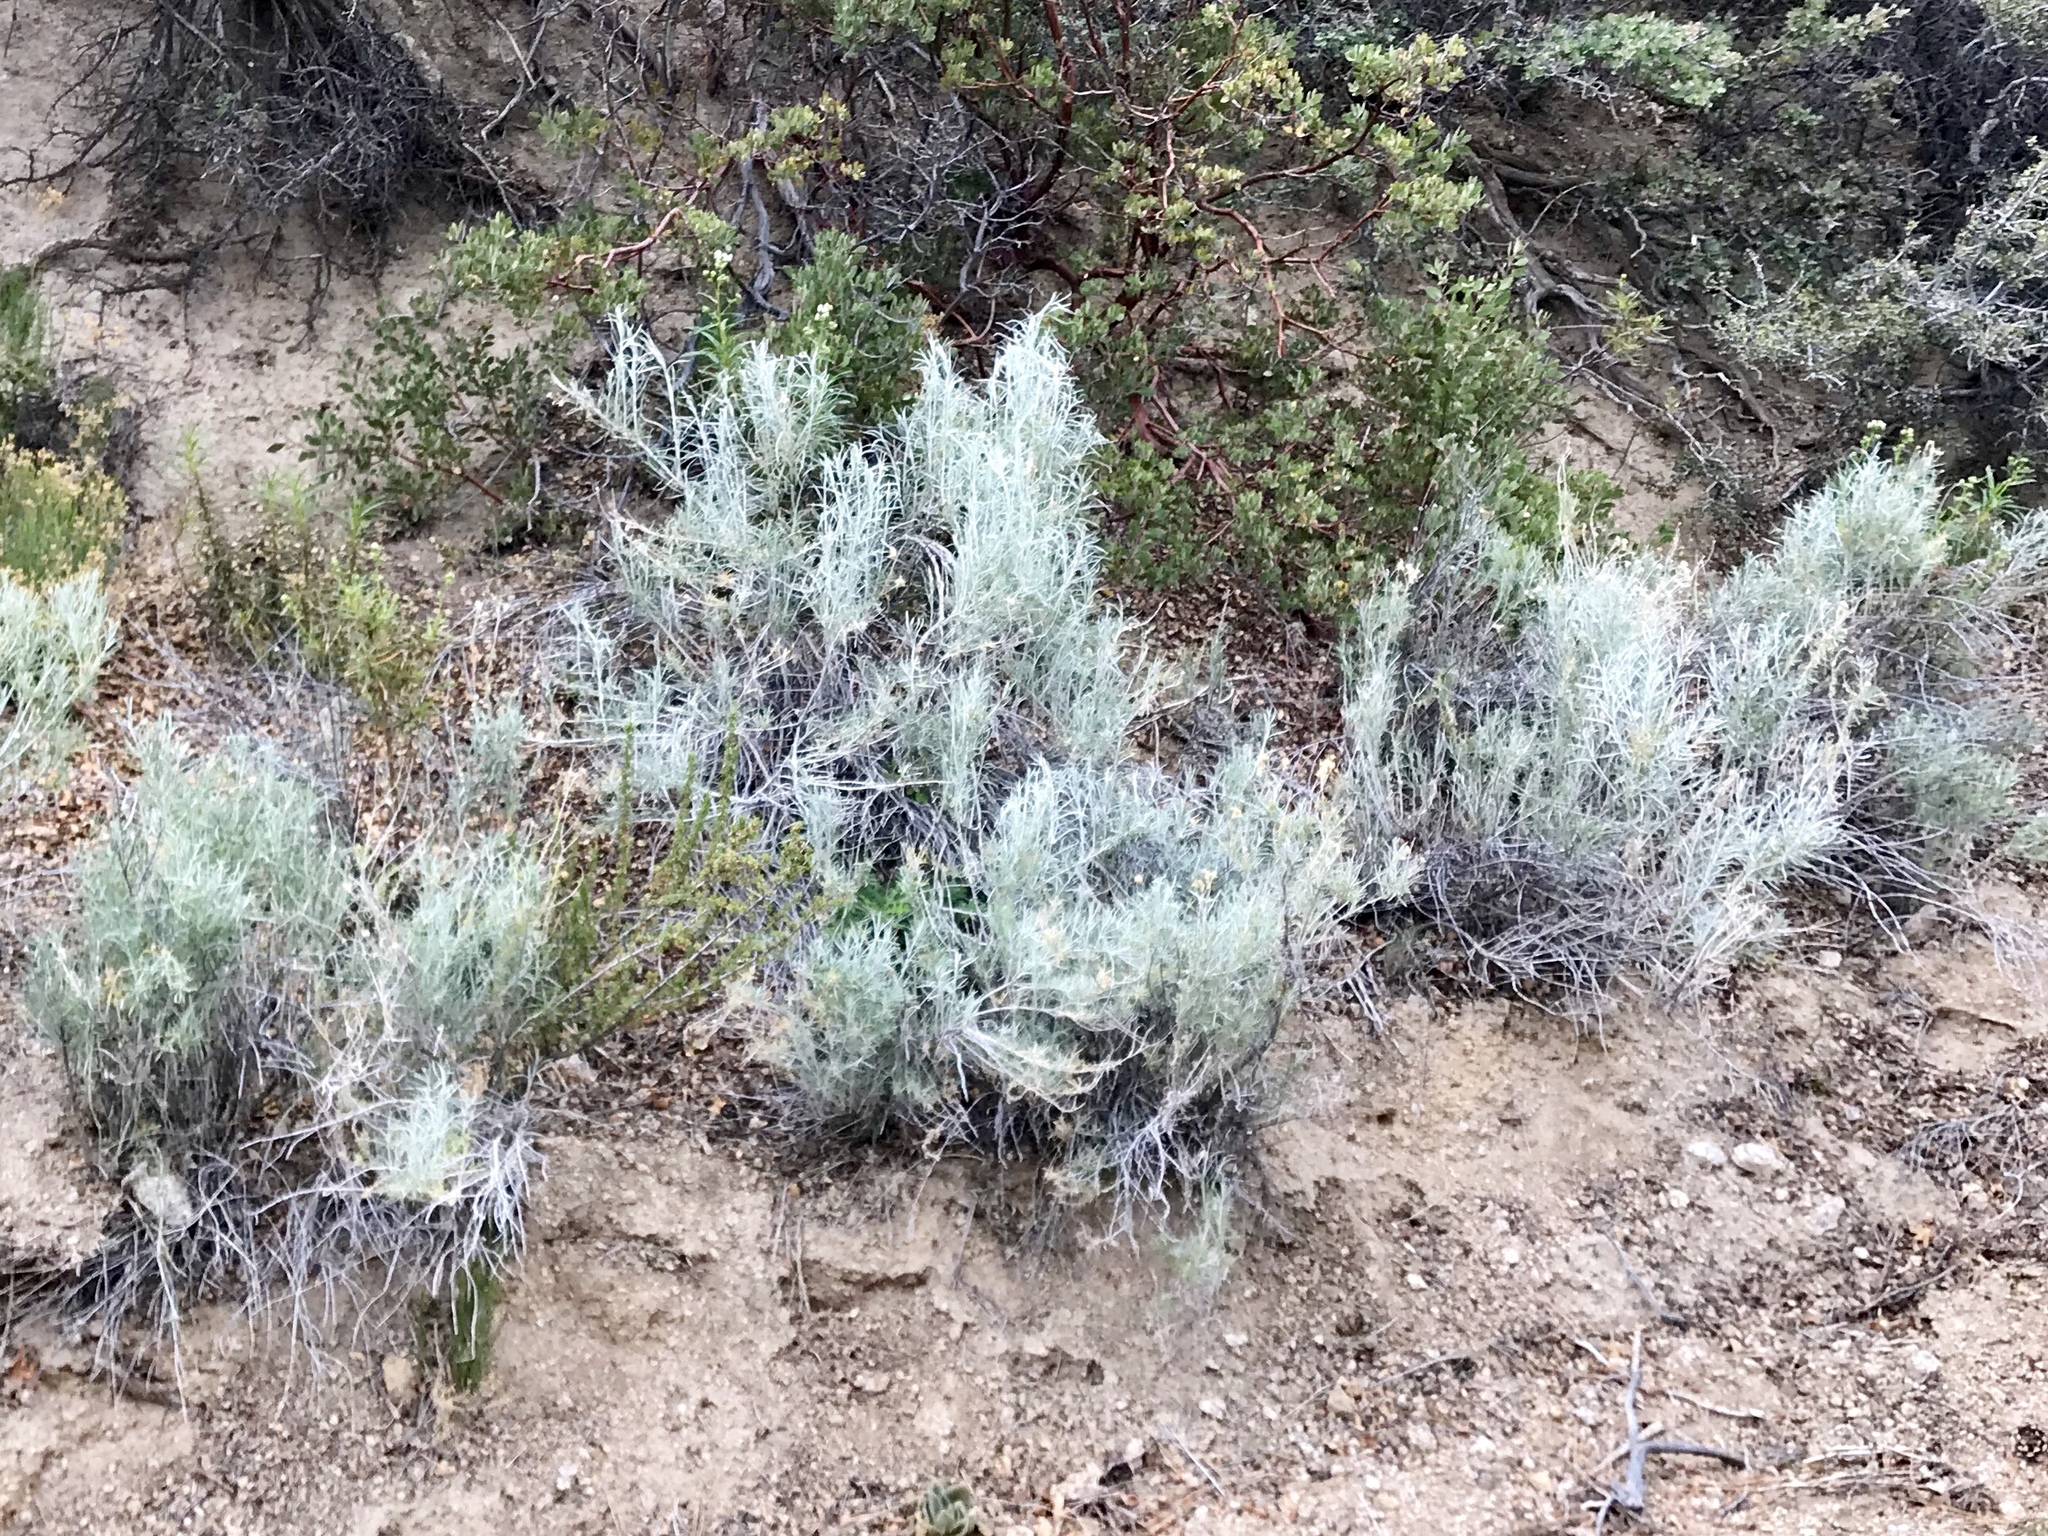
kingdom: Plantae
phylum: Tracheophyta
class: Magnoliopsida
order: Asterales
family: Asteraceae
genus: Artemisia
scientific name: Artemisia filifolia
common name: Sand-sage
